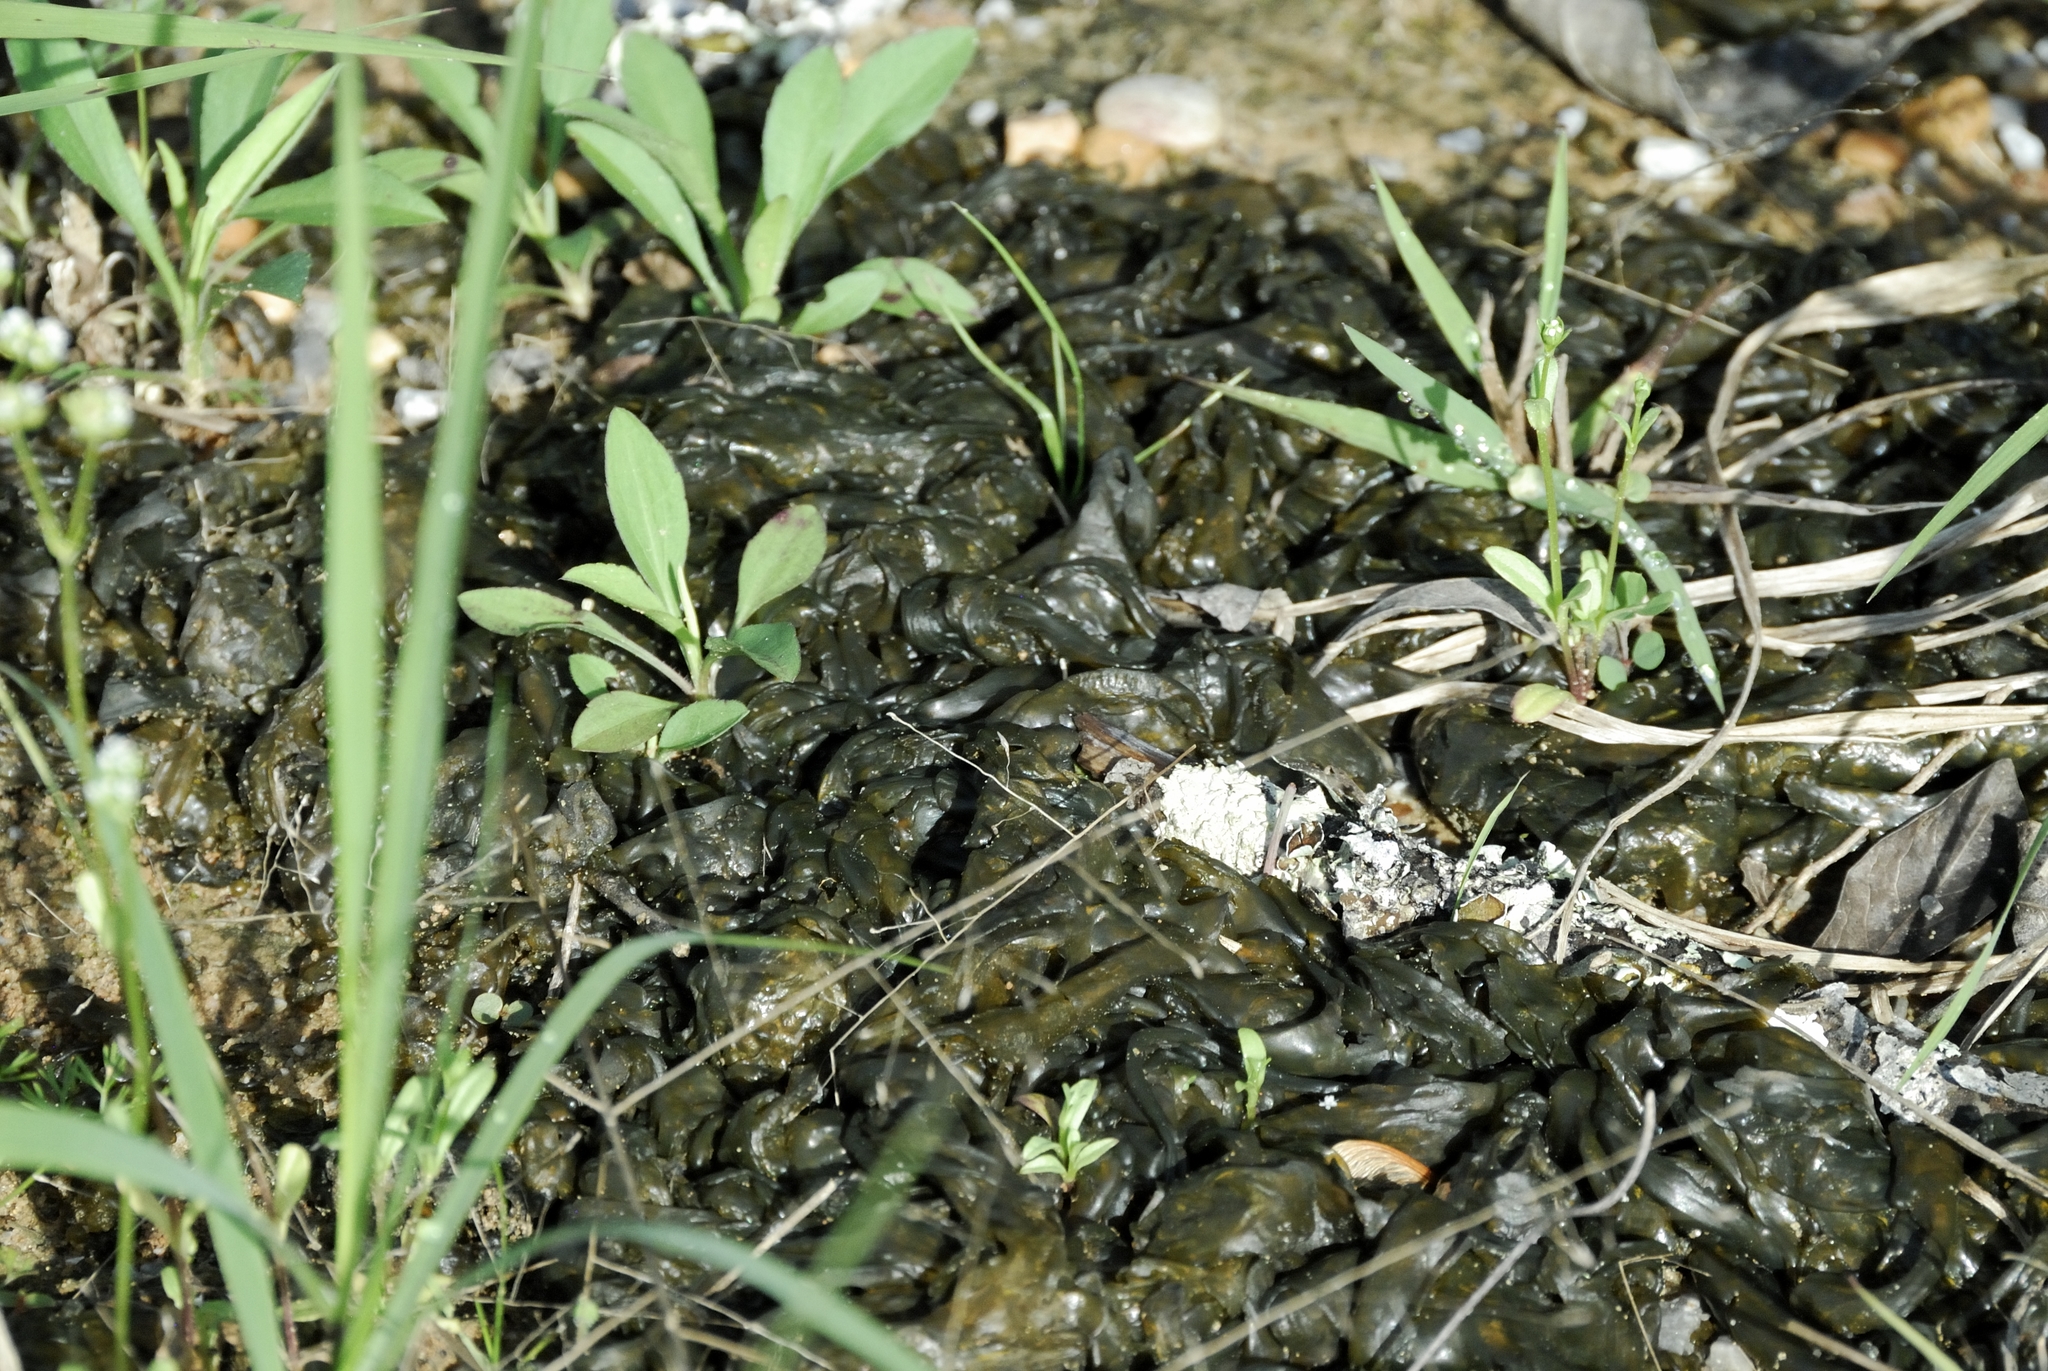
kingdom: Bacteria
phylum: Cyanobacteria
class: Cyanobacteriia
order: Cyanobacteriales
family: Nostocaceae
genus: Nostoc
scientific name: Nostoc commune
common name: Star jelly
